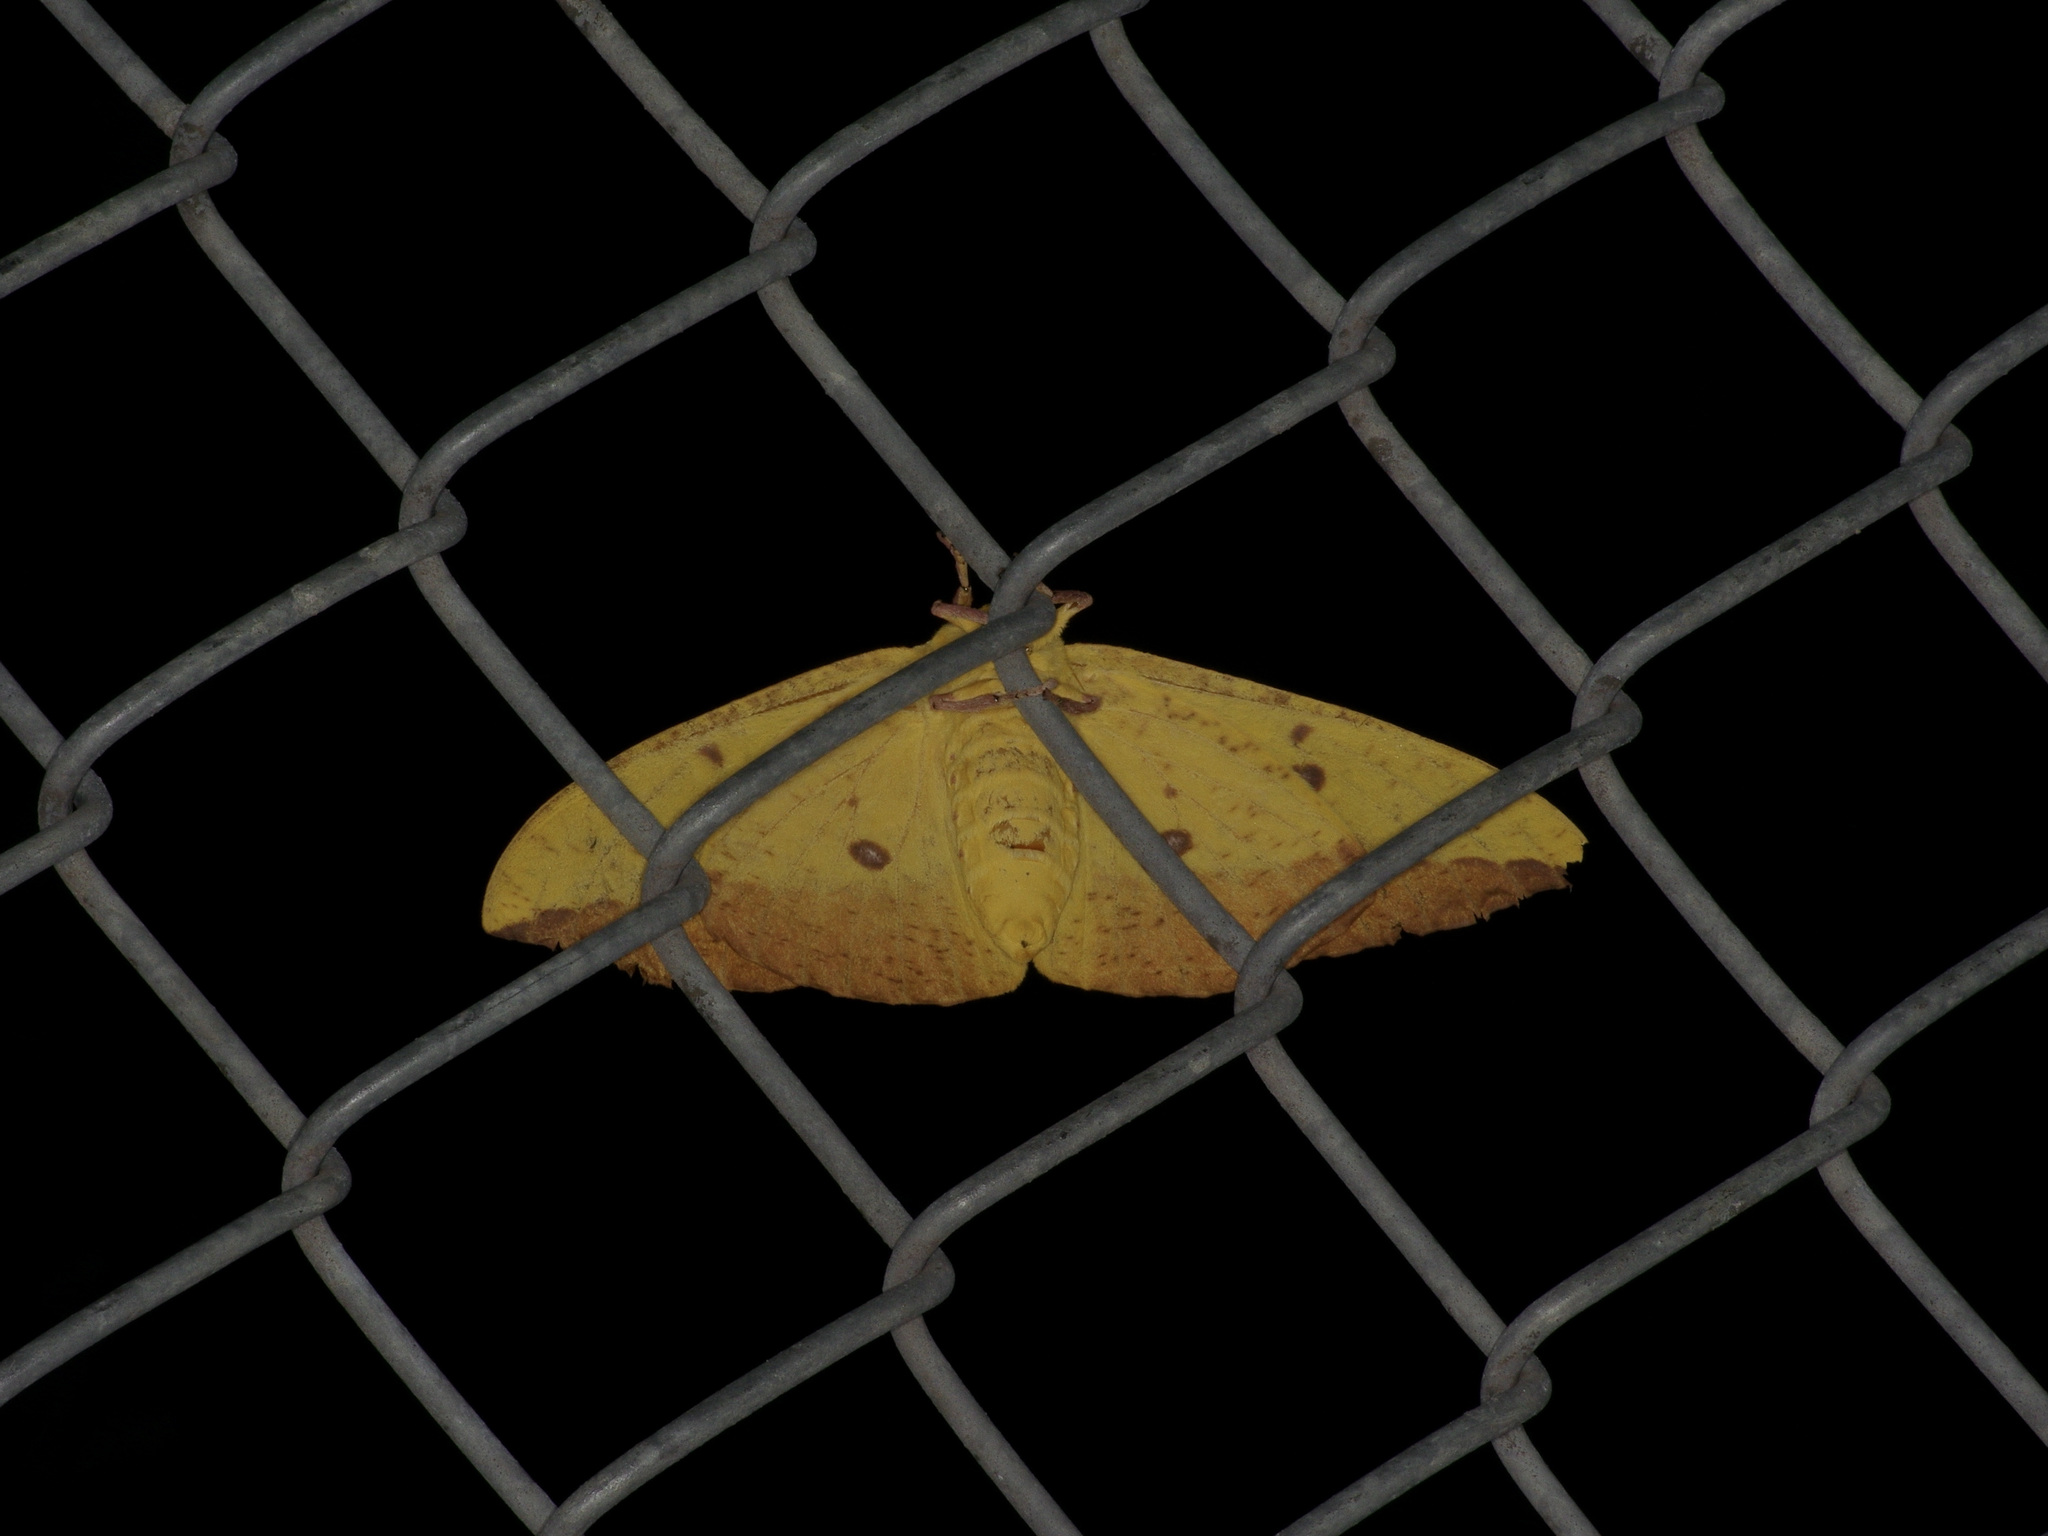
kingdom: Animalia
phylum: Arthropoda
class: Insecta
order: Lepidoptera
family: Saturniidae
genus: Eacles
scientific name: Eacles imperialis
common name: Imperial moth
